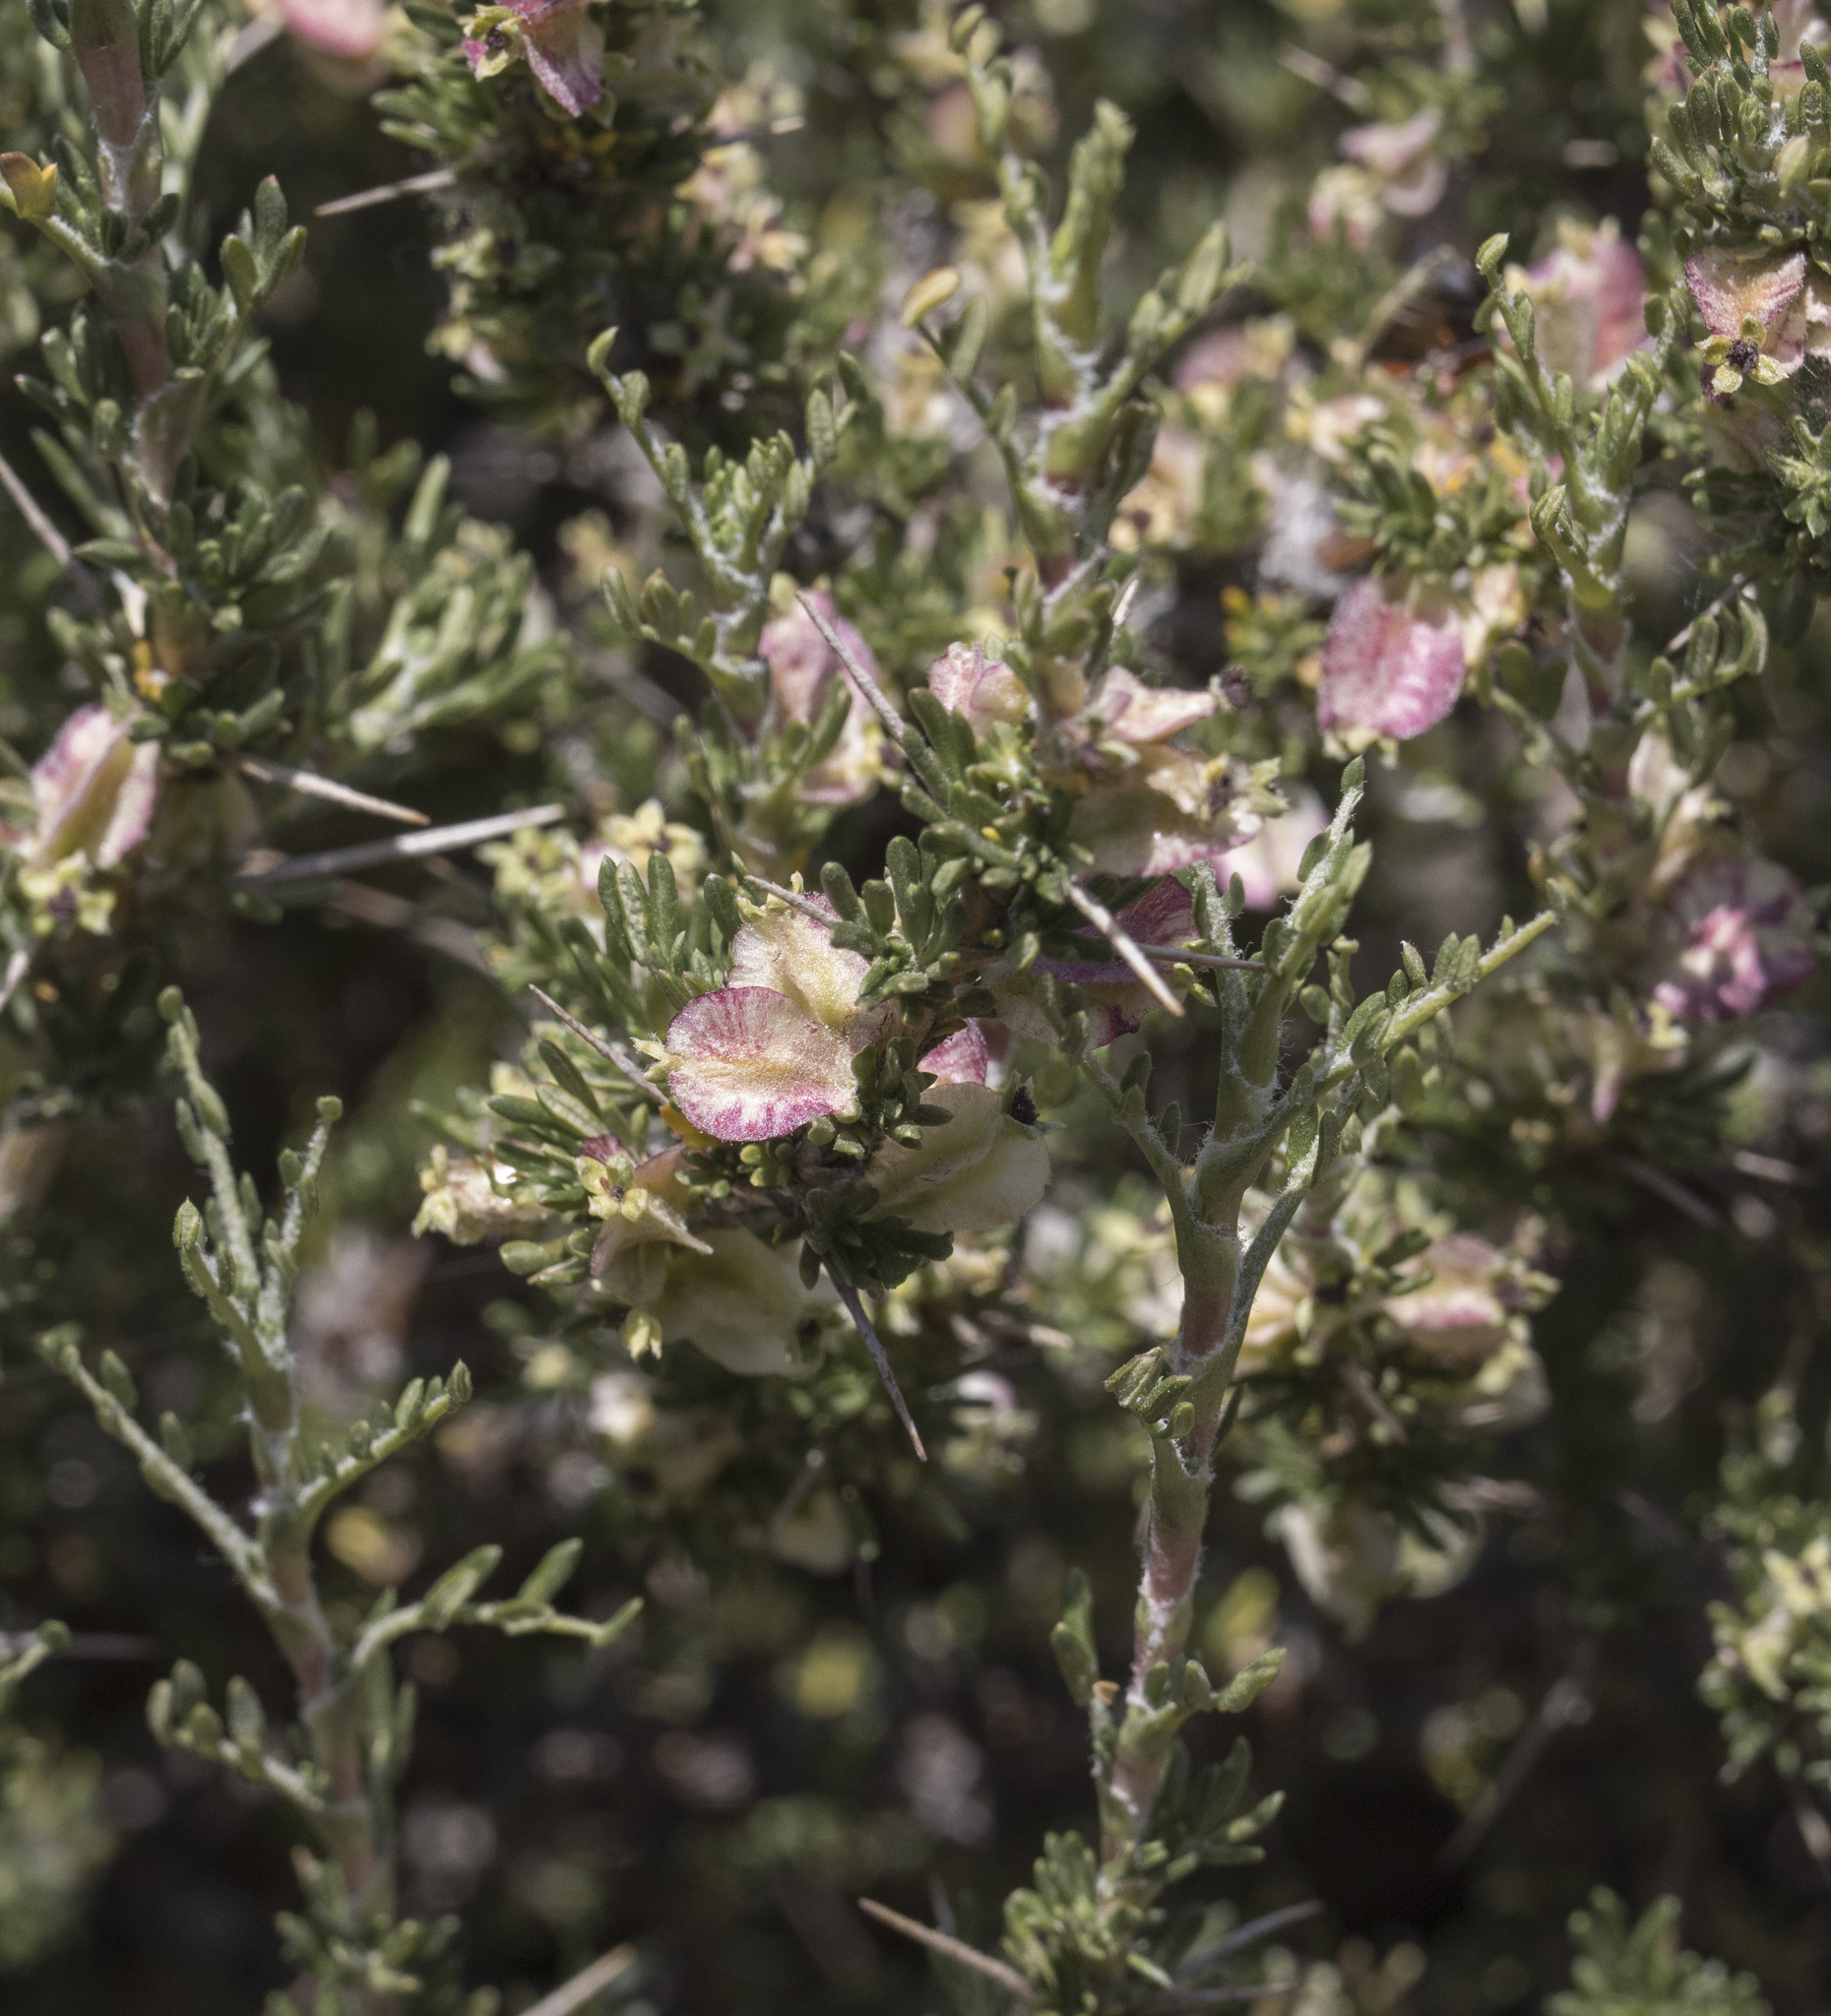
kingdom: Plantae
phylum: Tracheophyta
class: Magnoliopsida
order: Rosales
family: Rosaceae
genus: Margyricarpus
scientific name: Margyricarpus alatus
